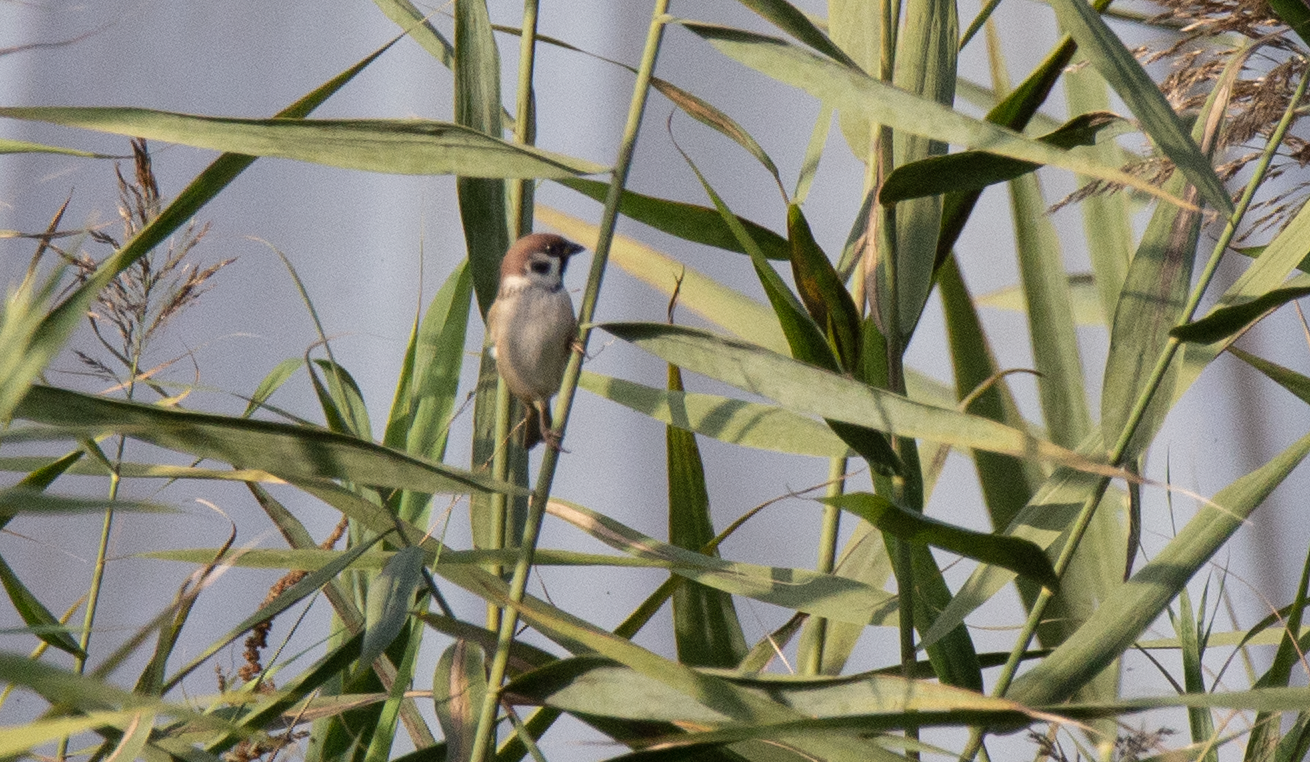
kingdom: Animalia
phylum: Chordata
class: Aves
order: Passeriformes
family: Passeridae
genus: Passer
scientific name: Passer montanus
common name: Eurasian tree sparrow
